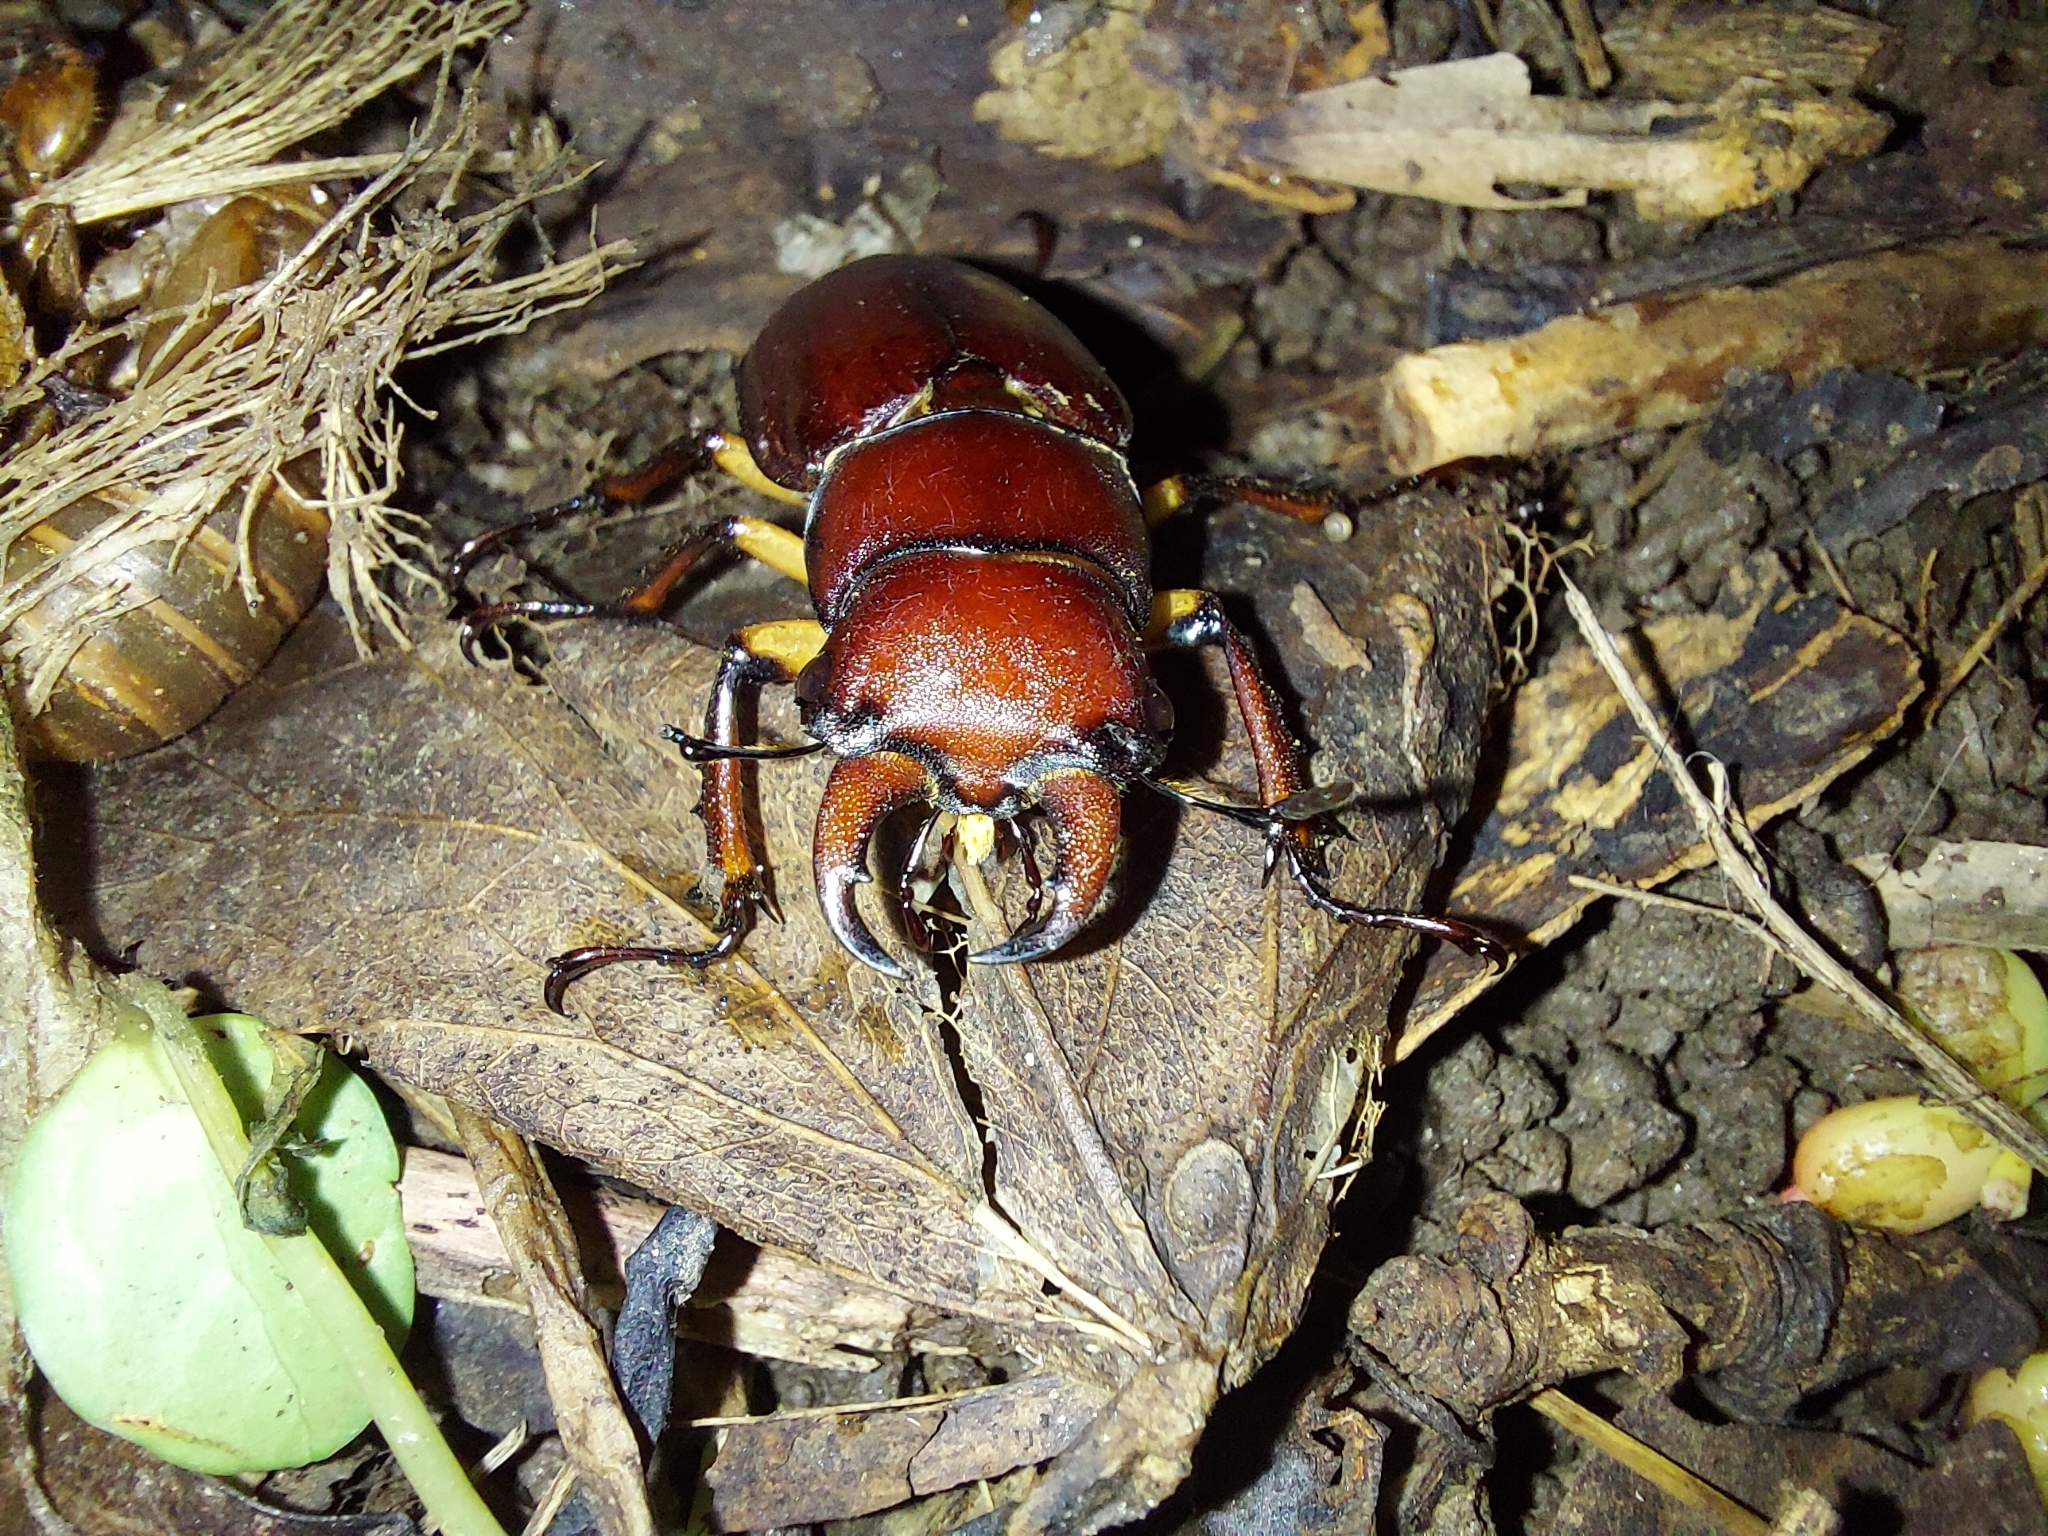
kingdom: Animalia
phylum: Arthropoda
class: Insecta
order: Coleoptera
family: Lucanidae
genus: Lucanus
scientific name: Lucanus capreolus
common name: Stag beetle
